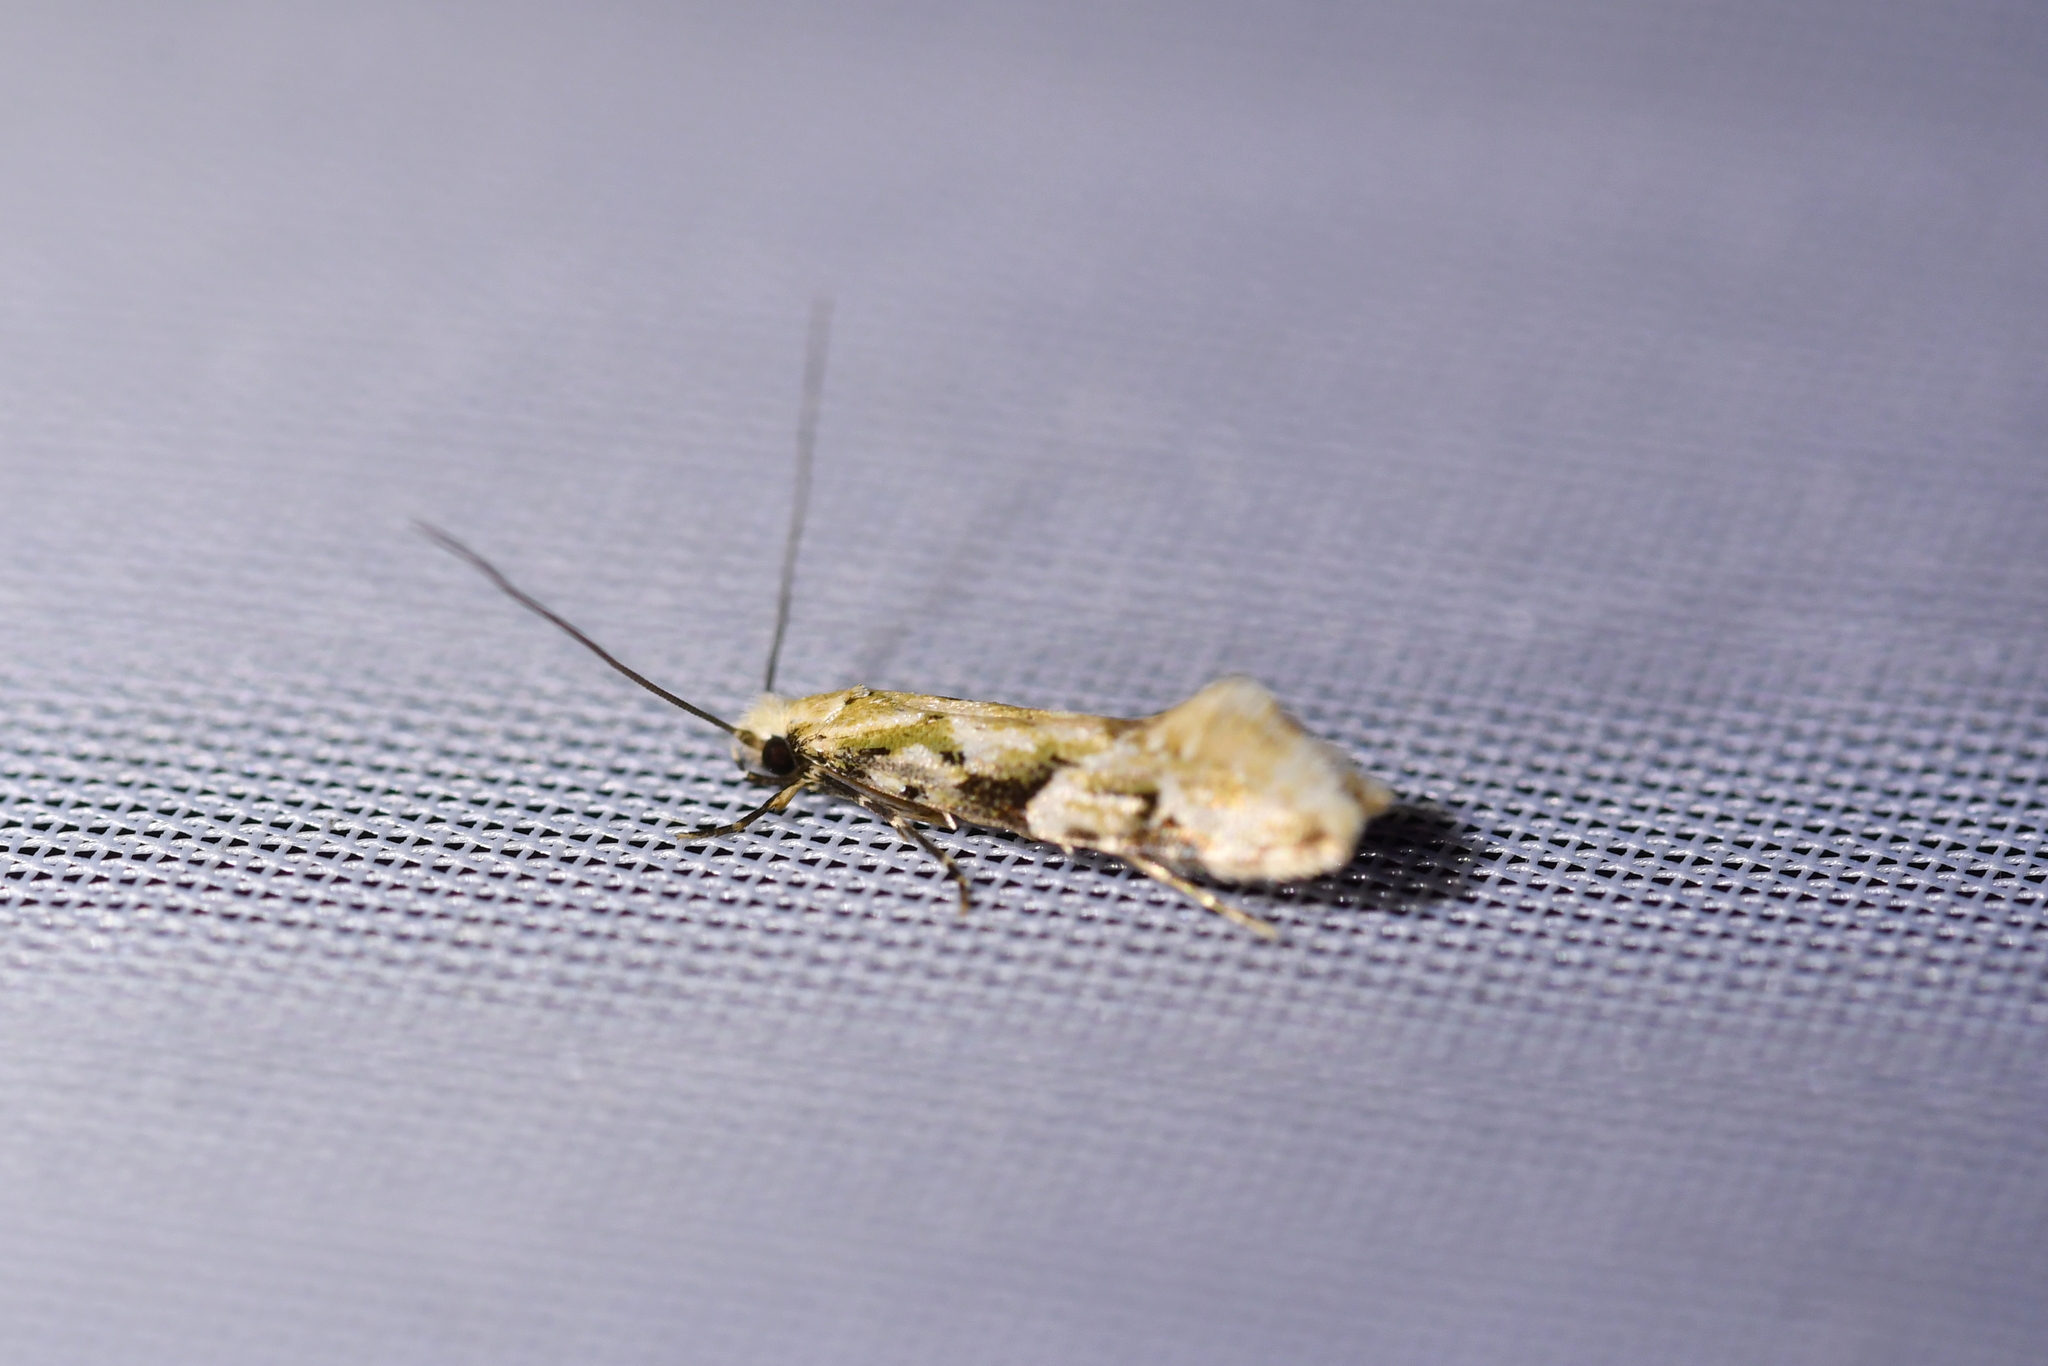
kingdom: Animalia
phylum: Arthropoda
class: Insecta
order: Lepidoptera
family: Tineidae
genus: Crypsitricha
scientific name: Crypsitricha mesotypa
